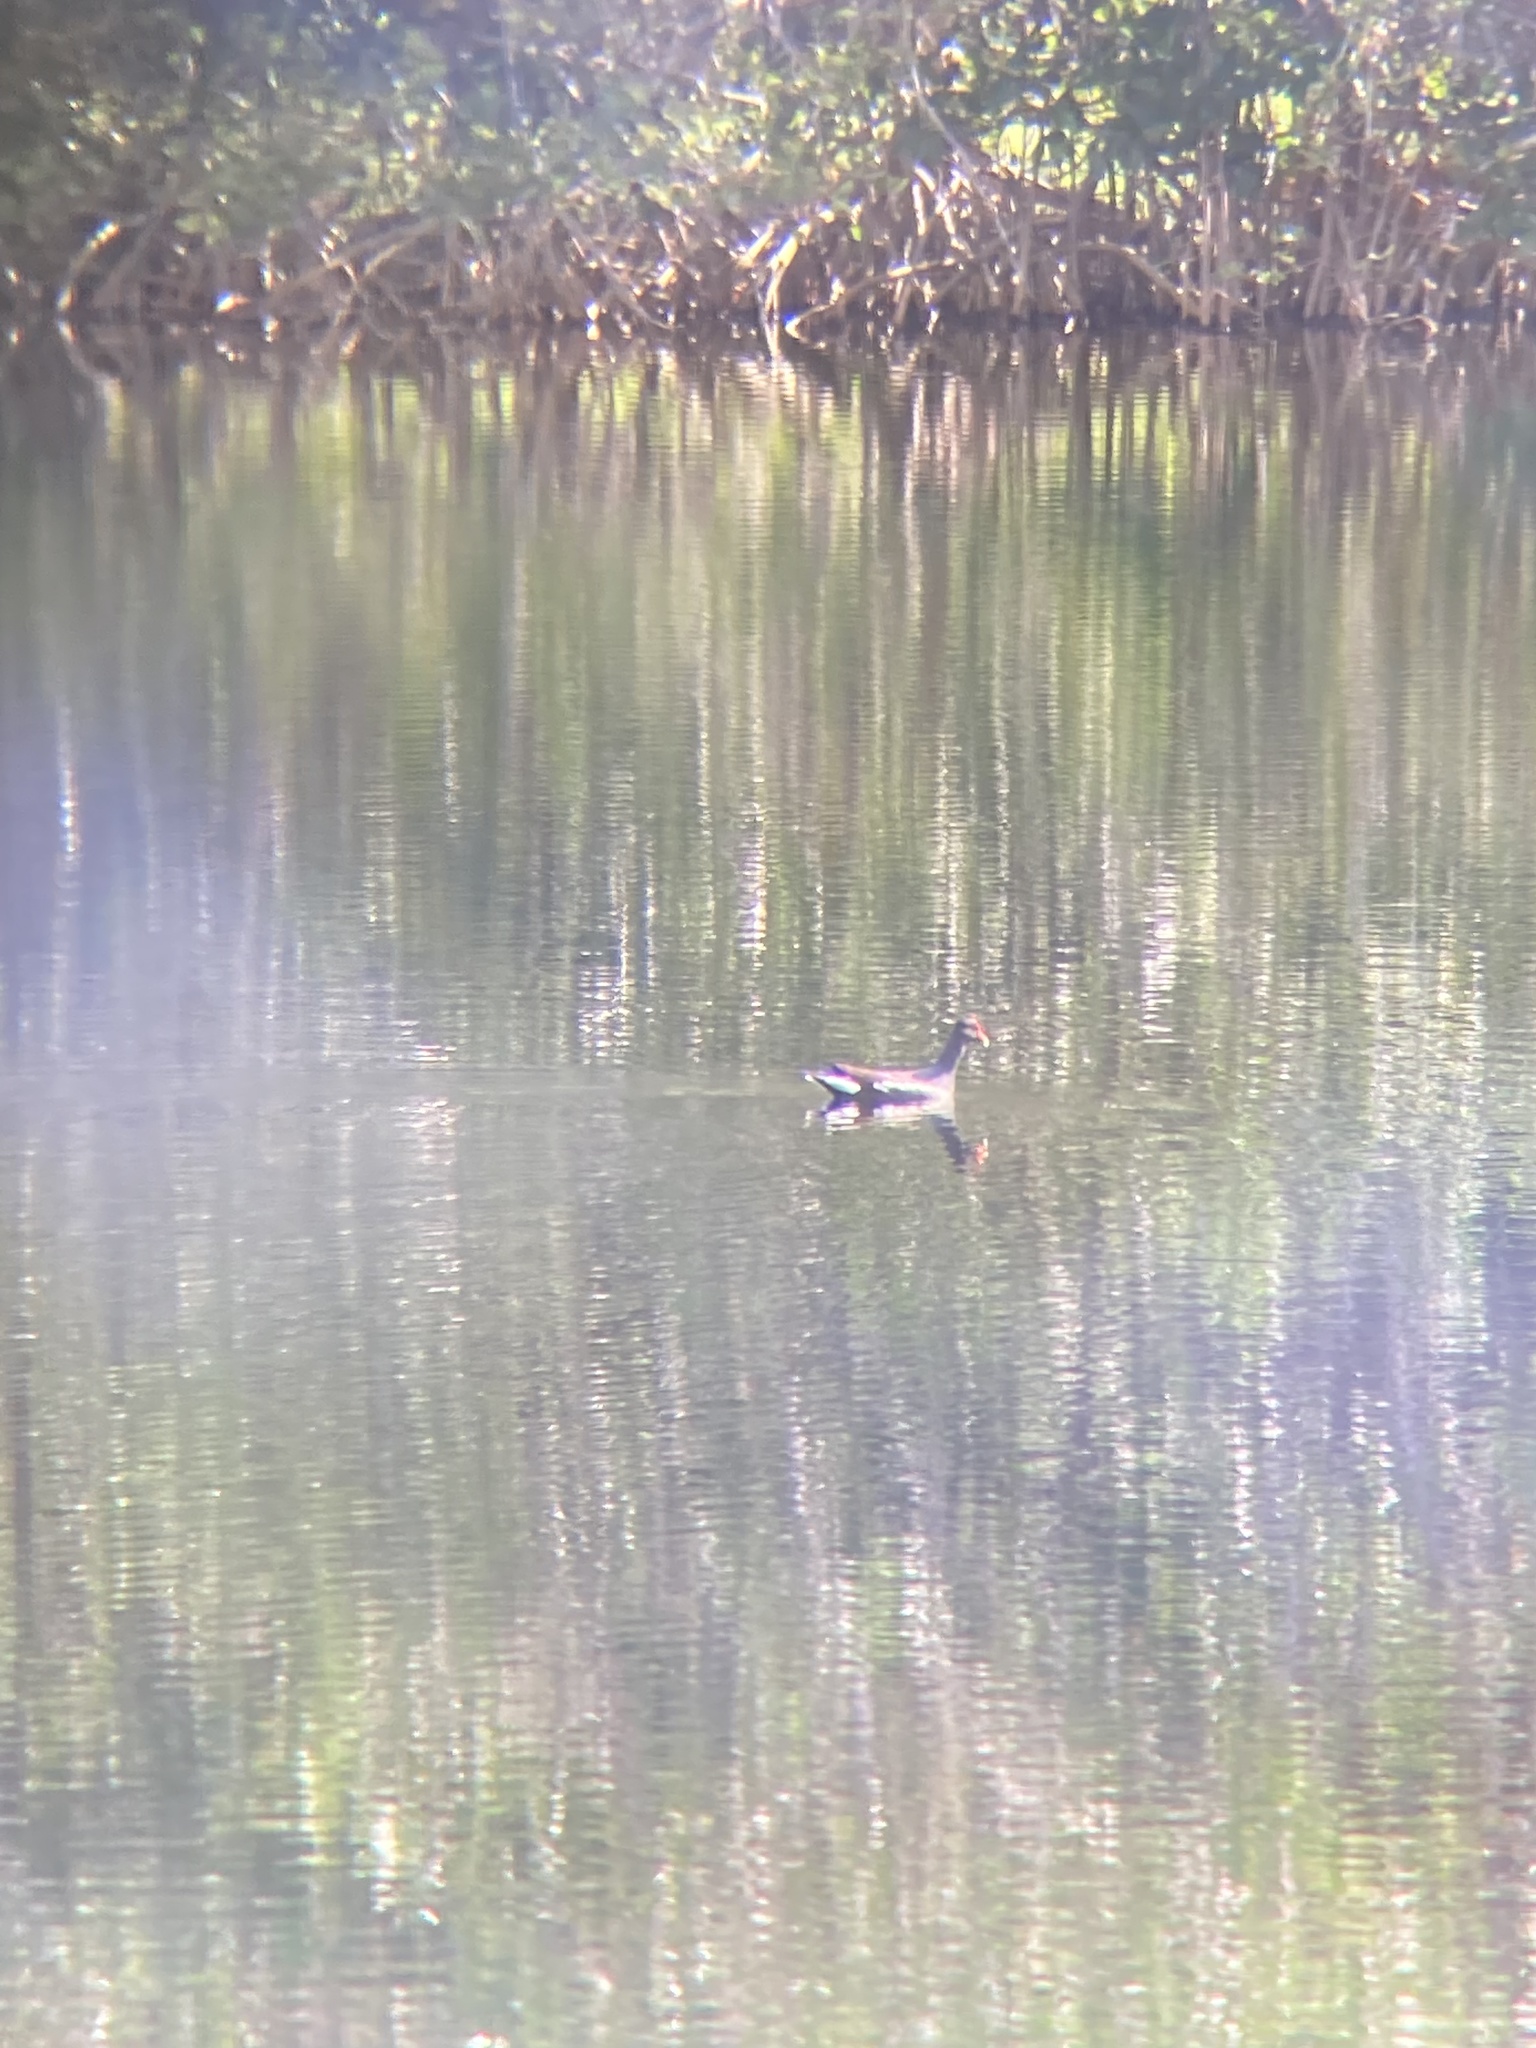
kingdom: Animalia
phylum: Chordata
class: Aves
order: Gruiformes
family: Rallidae
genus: Gallinula
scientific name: Gallinula chloropus
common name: Common moorhen
